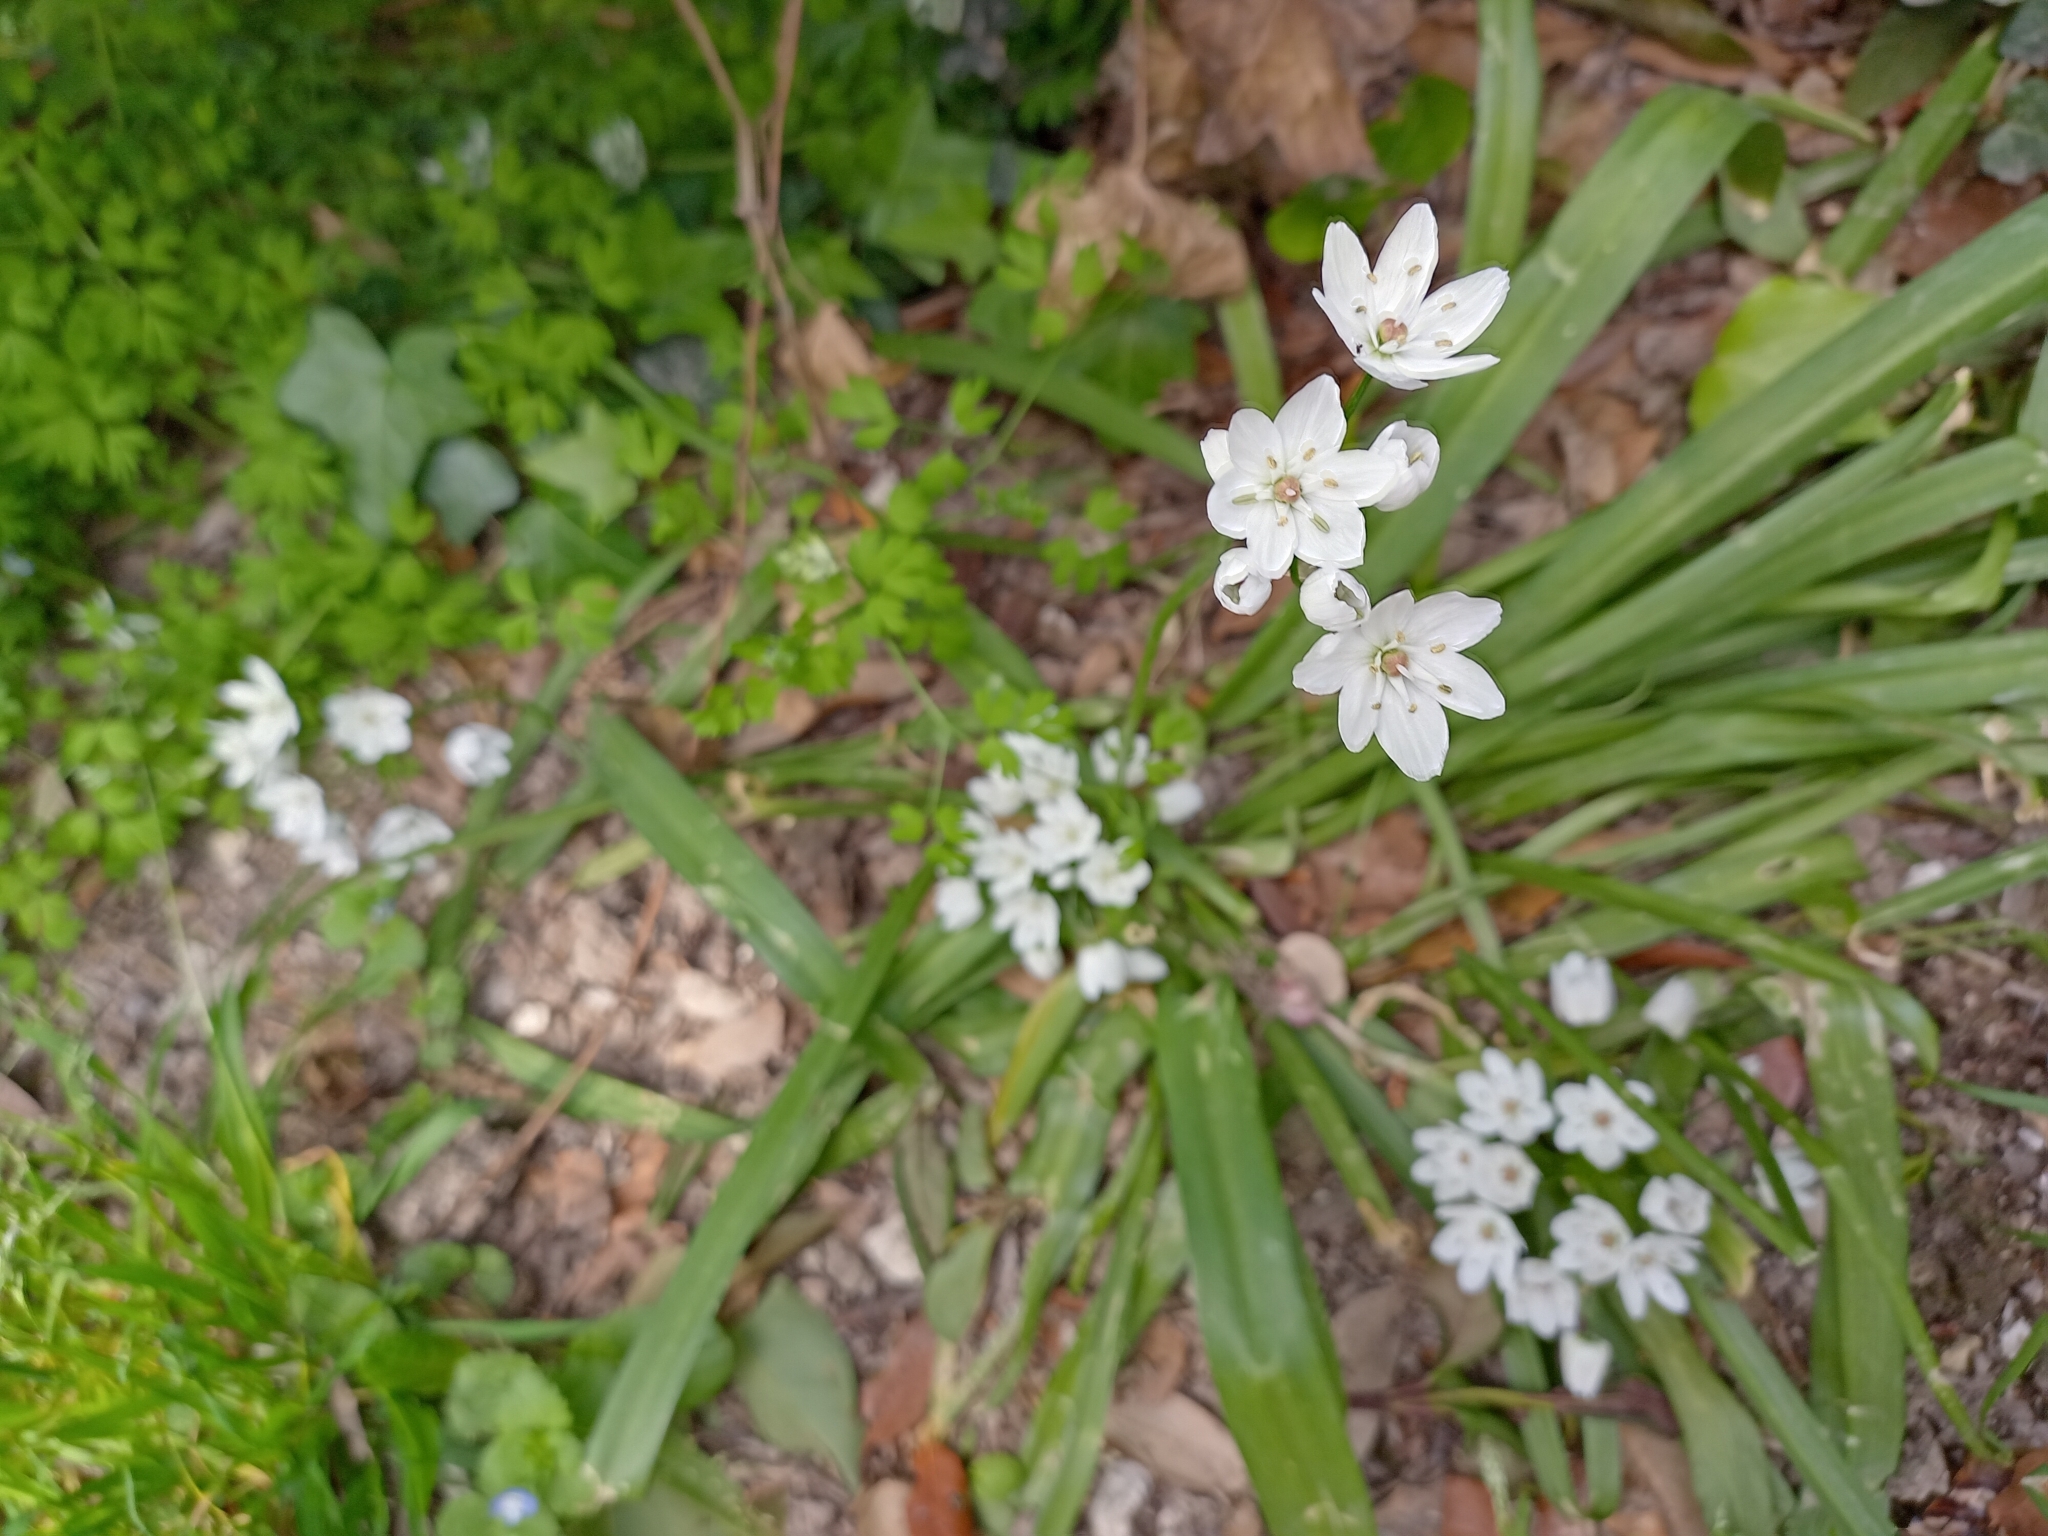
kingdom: Plantae
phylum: Tracheophyta
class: Liliopsida
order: Asparagales
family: Amaryllidaceae
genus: Allium
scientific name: Allium neapolitanum
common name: Neapolitan garlic
